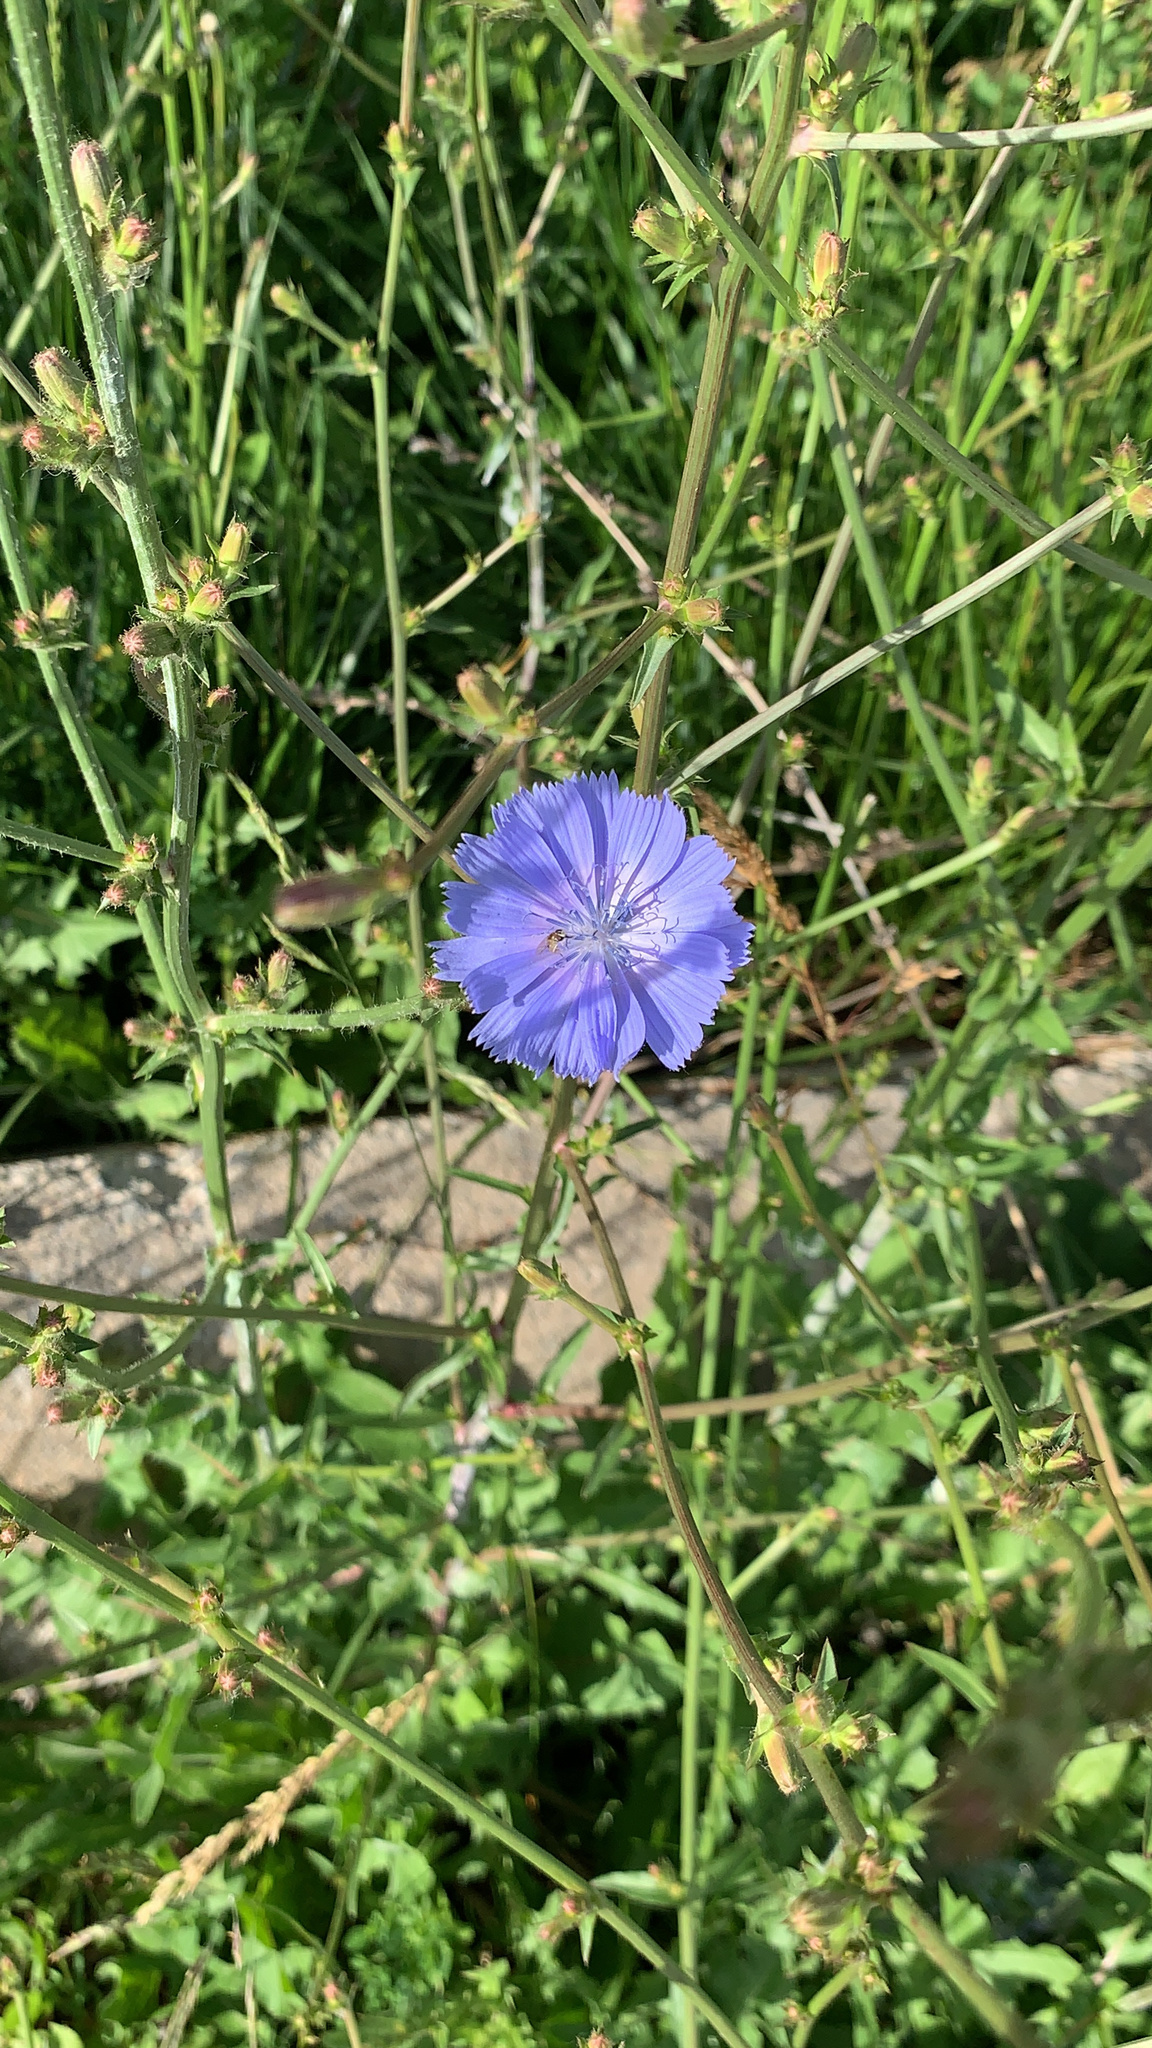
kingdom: Plantae
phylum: Tracheophyta
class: Magnoliopsida
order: Asterales
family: Asteraceae
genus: Cichorium
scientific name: Cichorium intybus
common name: Chicory
